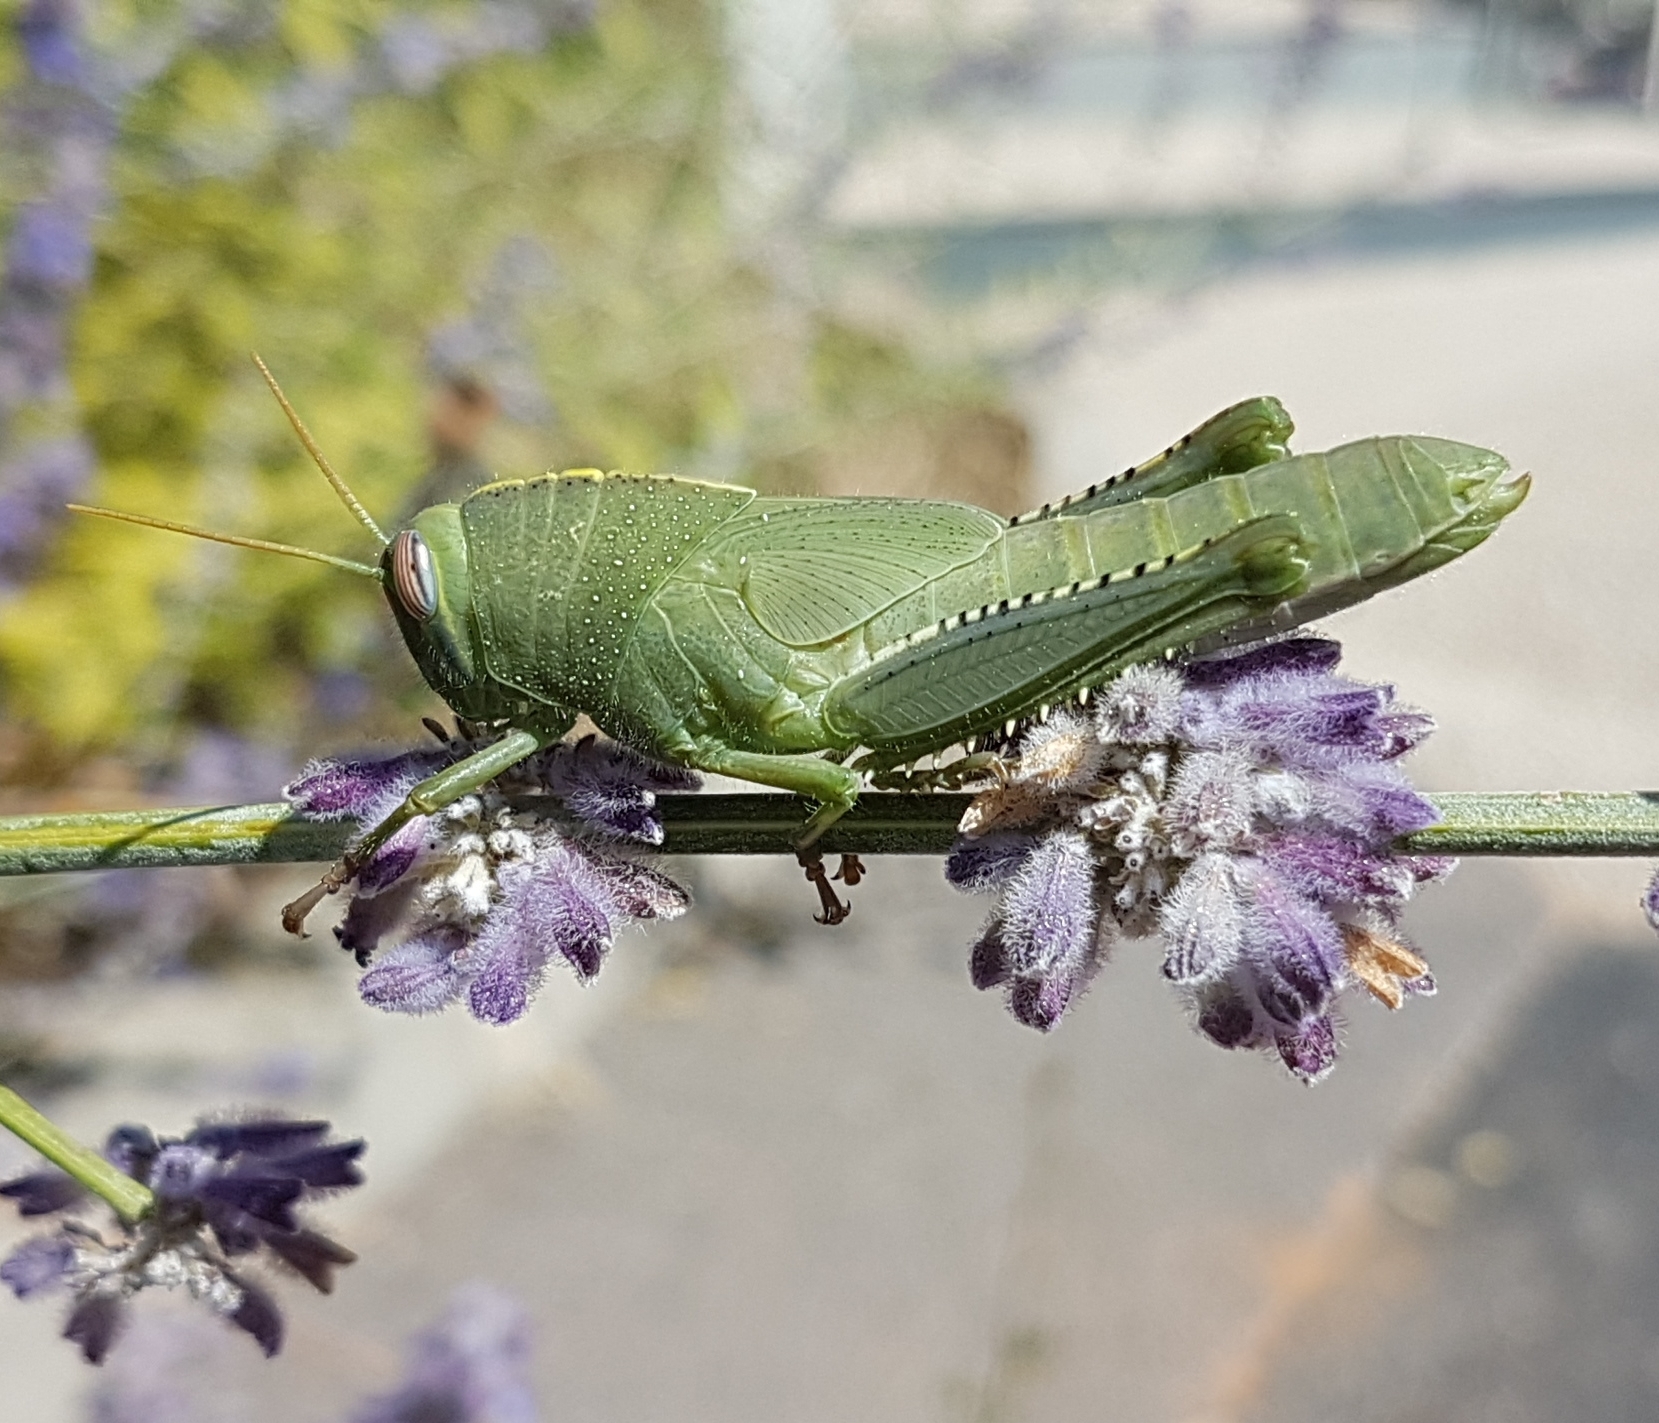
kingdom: Animalia
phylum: Arthropoda
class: Insecta
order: Orthoptera
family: Acrididae
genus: Anacridium
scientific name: Anacridium aegyptium
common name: Egyptian grasshopper
